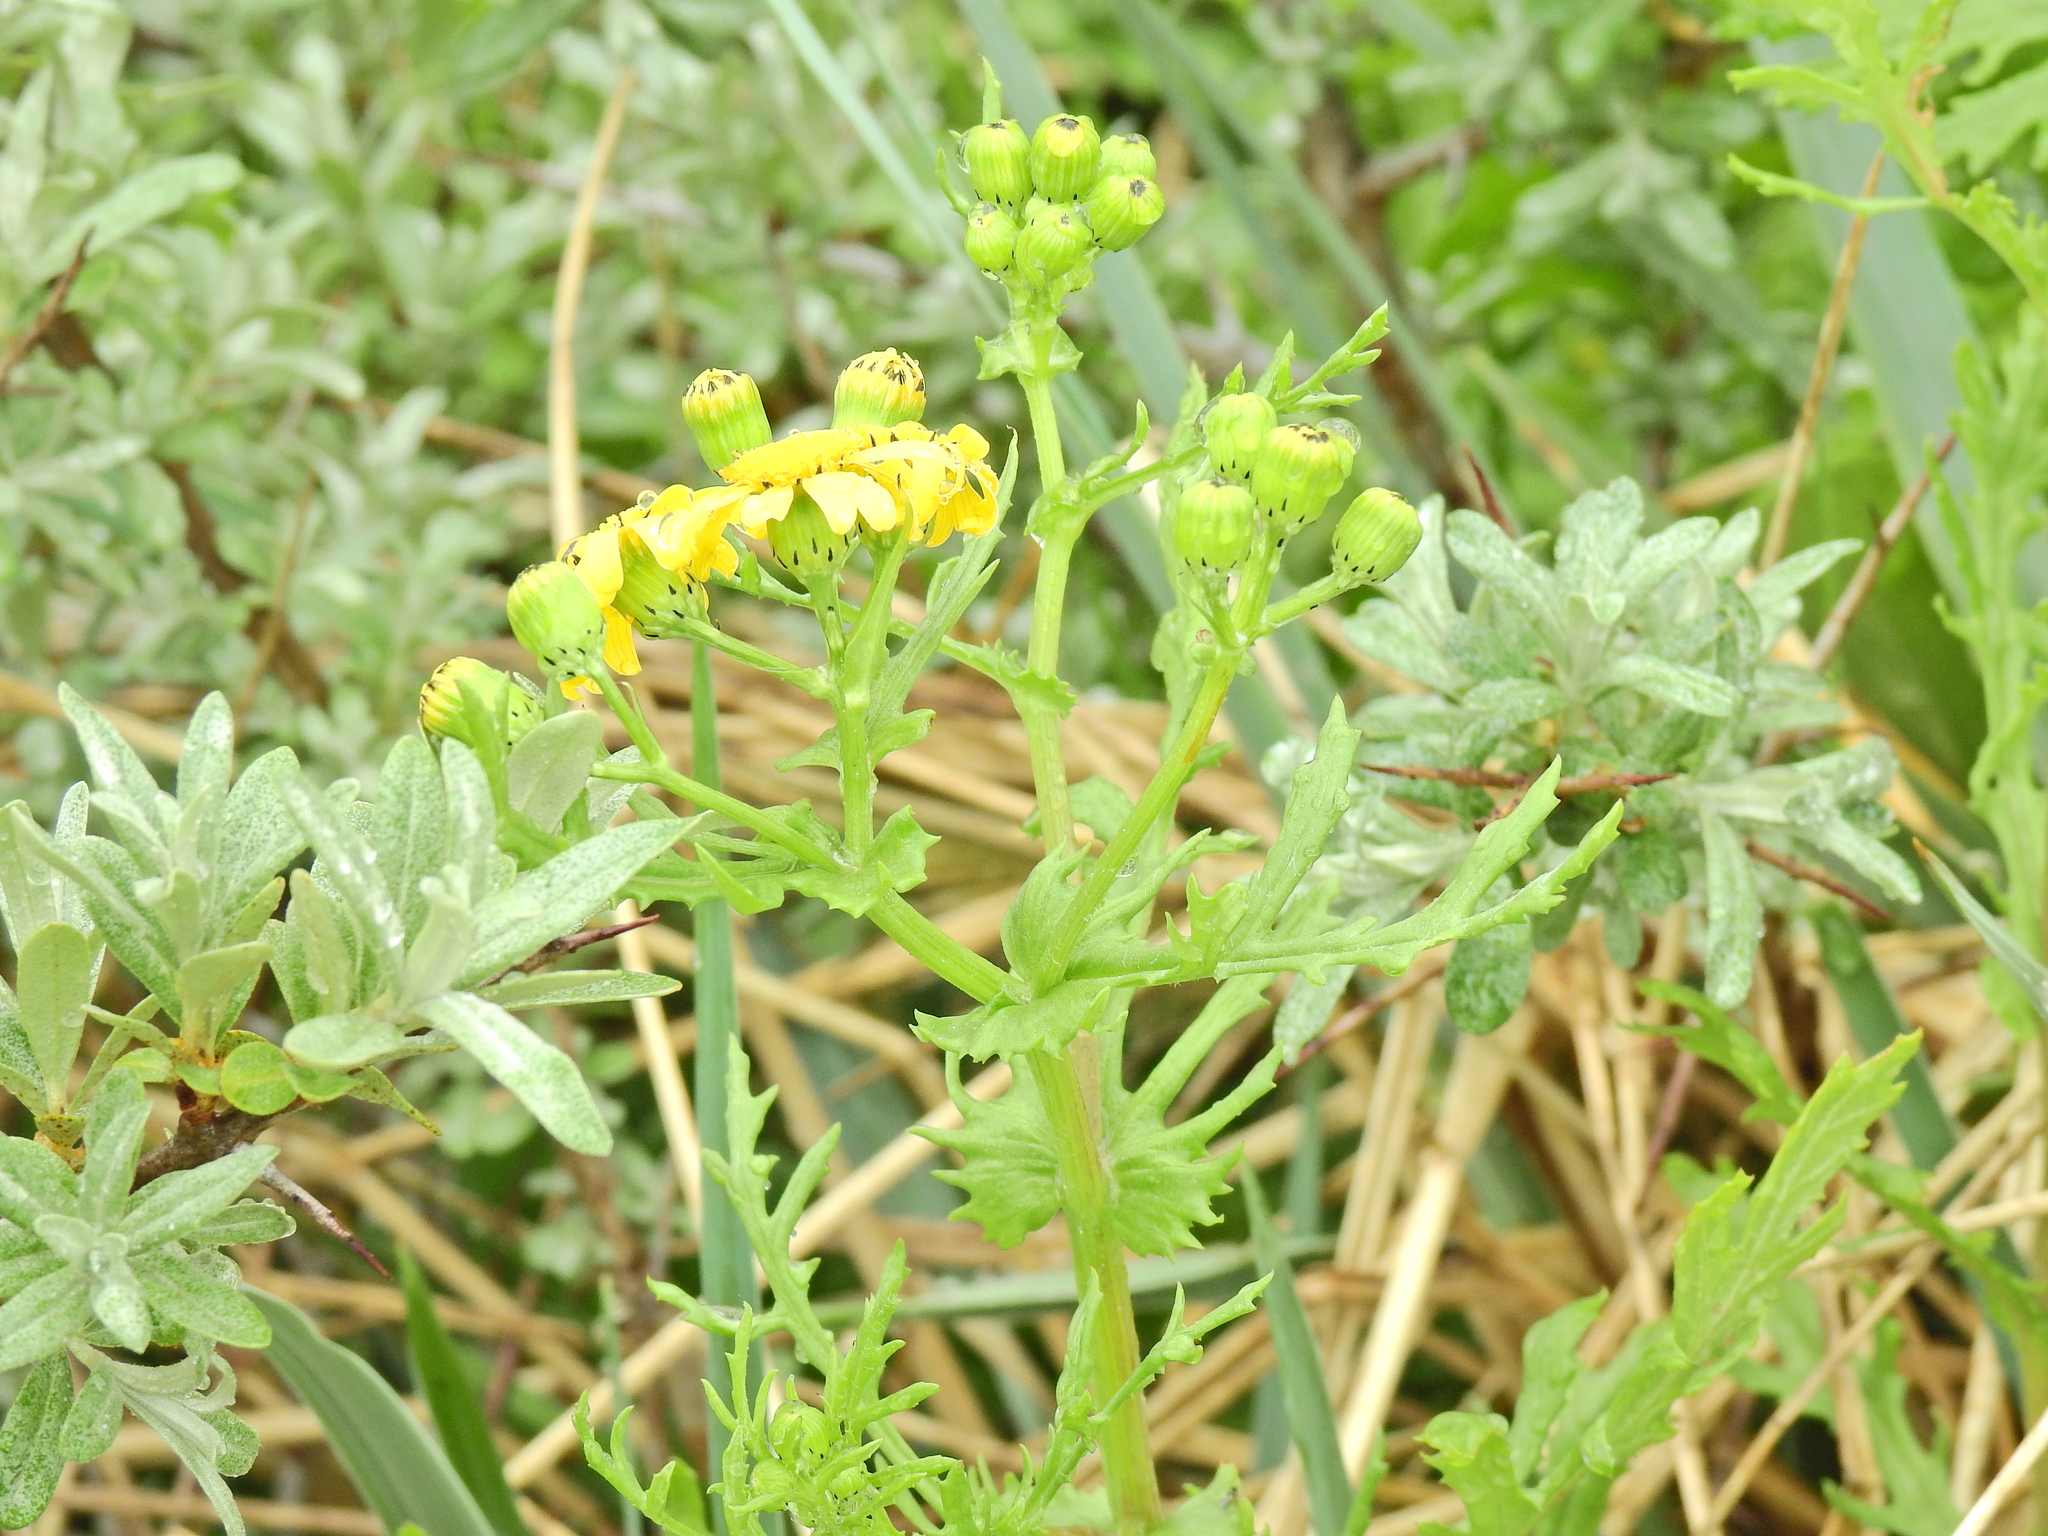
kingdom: Plantae
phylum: Tracheophyta
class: Magnoliopsida
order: Asterales
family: Asteraceae
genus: Senecio
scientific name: Senecio squalidus
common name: Oxford ragwort
